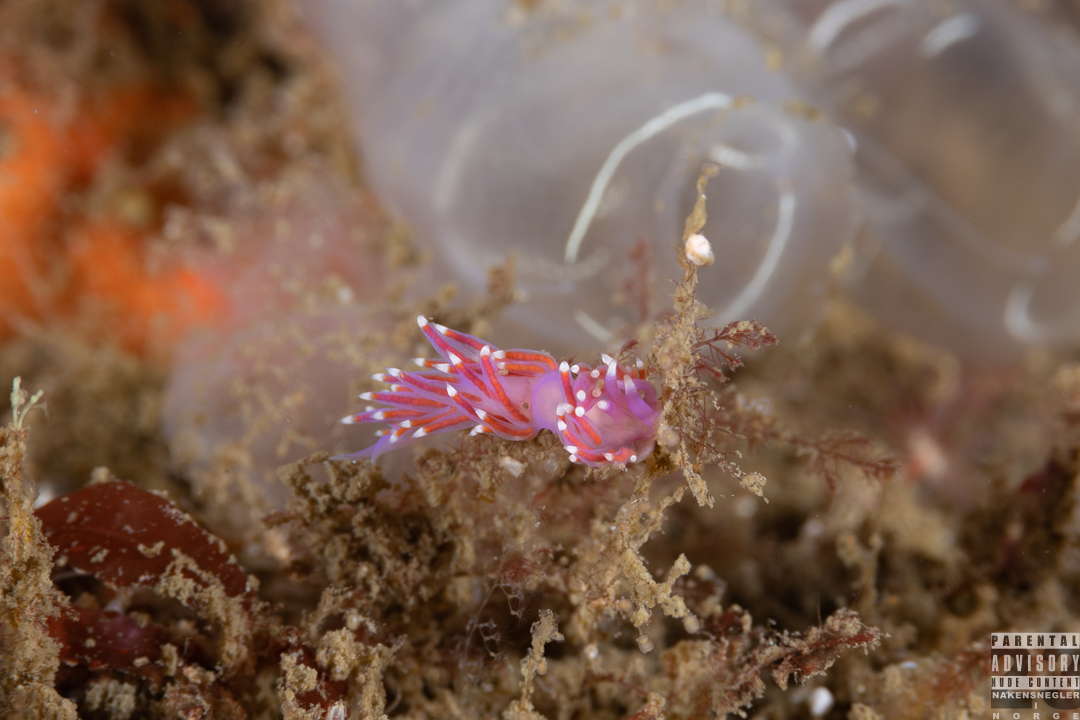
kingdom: Animalia
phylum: Mollusca
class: Gastropoda
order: Nudibranchia
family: Flabellinidae
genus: Edmundsella
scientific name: Edmundsella pedata
